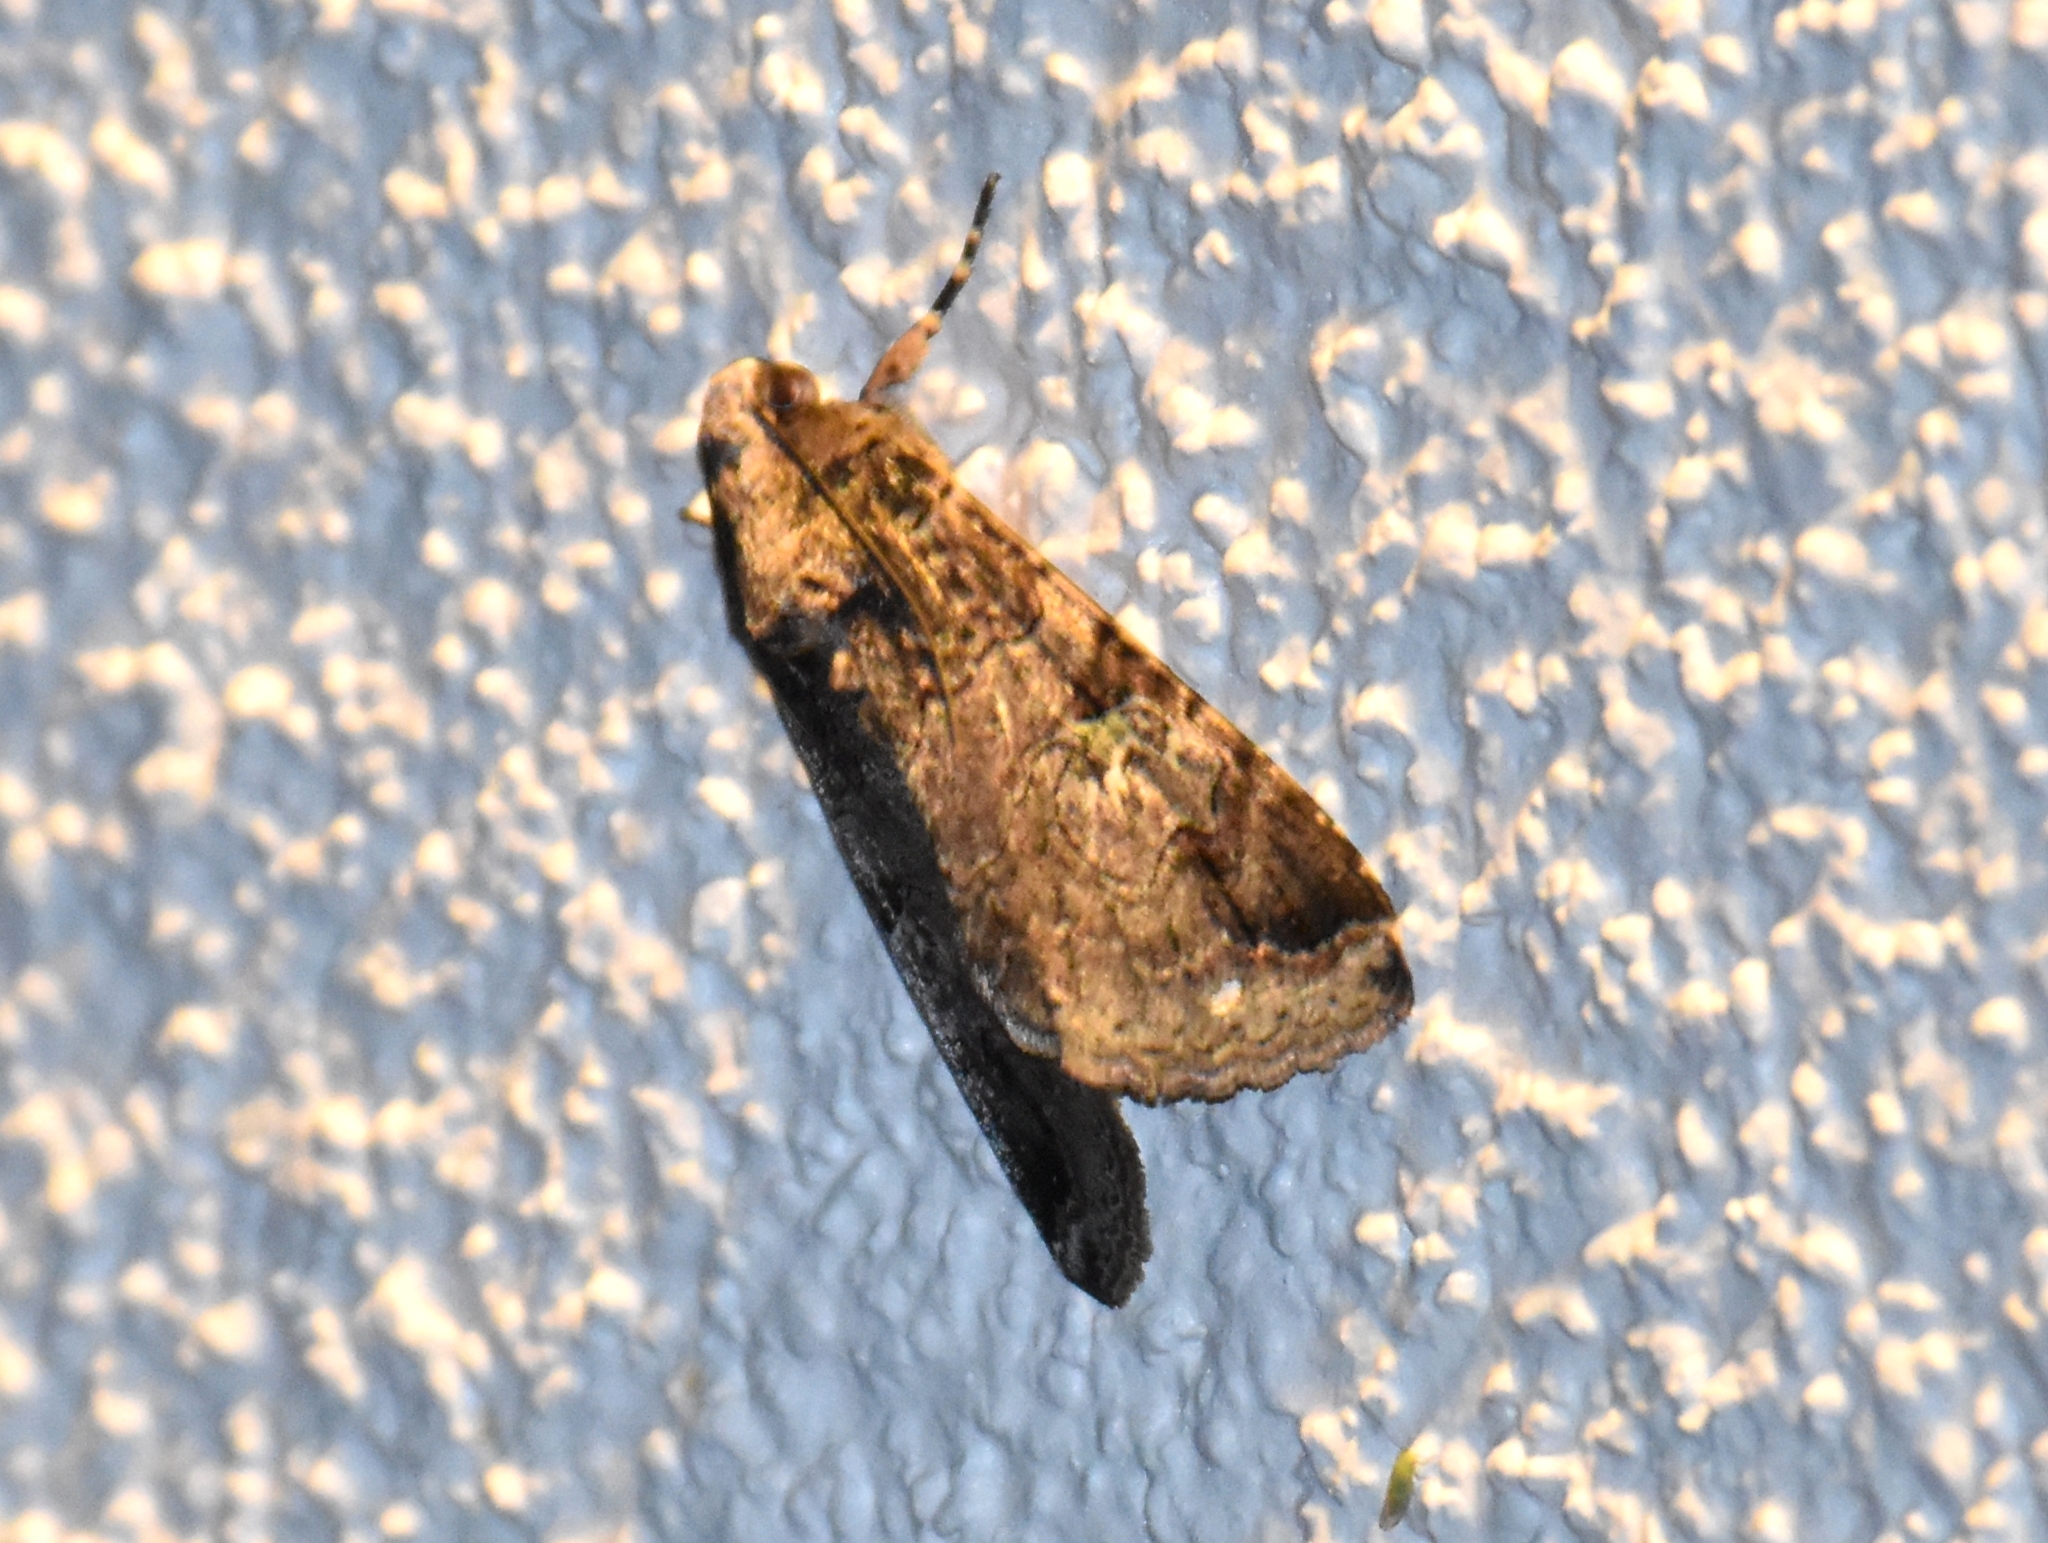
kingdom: Animalia
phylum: Arthropoda
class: Insecta
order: Lepidoptera
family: Erebidae
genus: Melipotis
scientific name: Melipotis famelica
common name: Famelica melipotis moth
